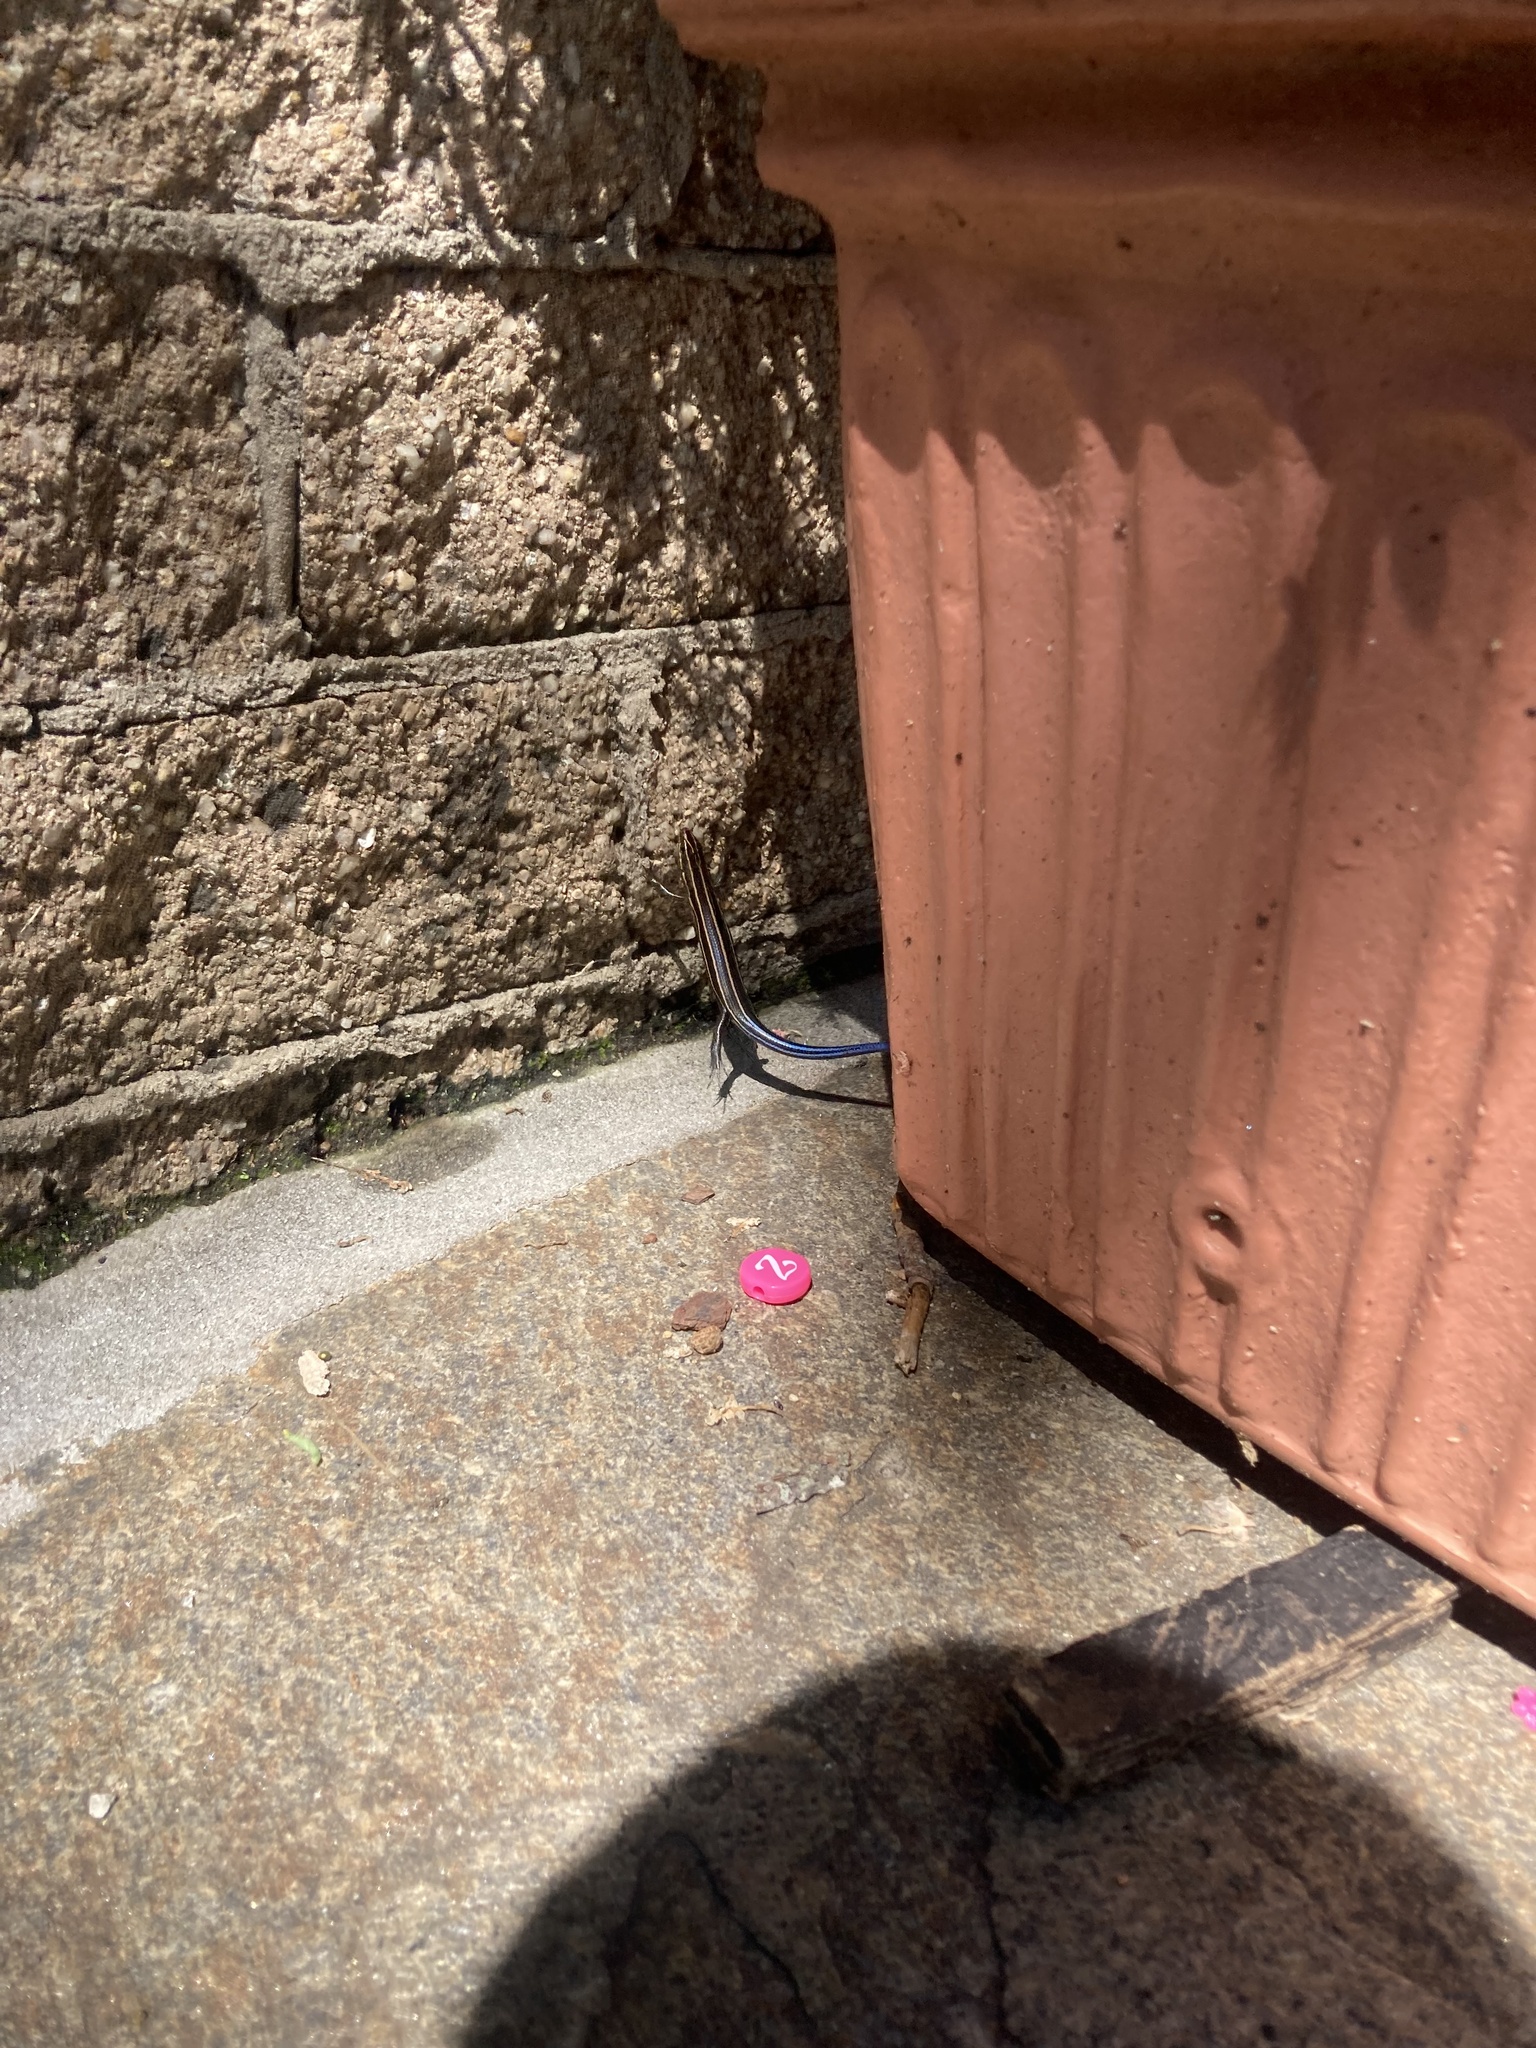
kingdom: Animalia
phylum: Chordata
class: Squamata
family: Scincidae
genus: Plestiodon
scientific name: Plestiodon fasciatus
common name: Five-lined skink
